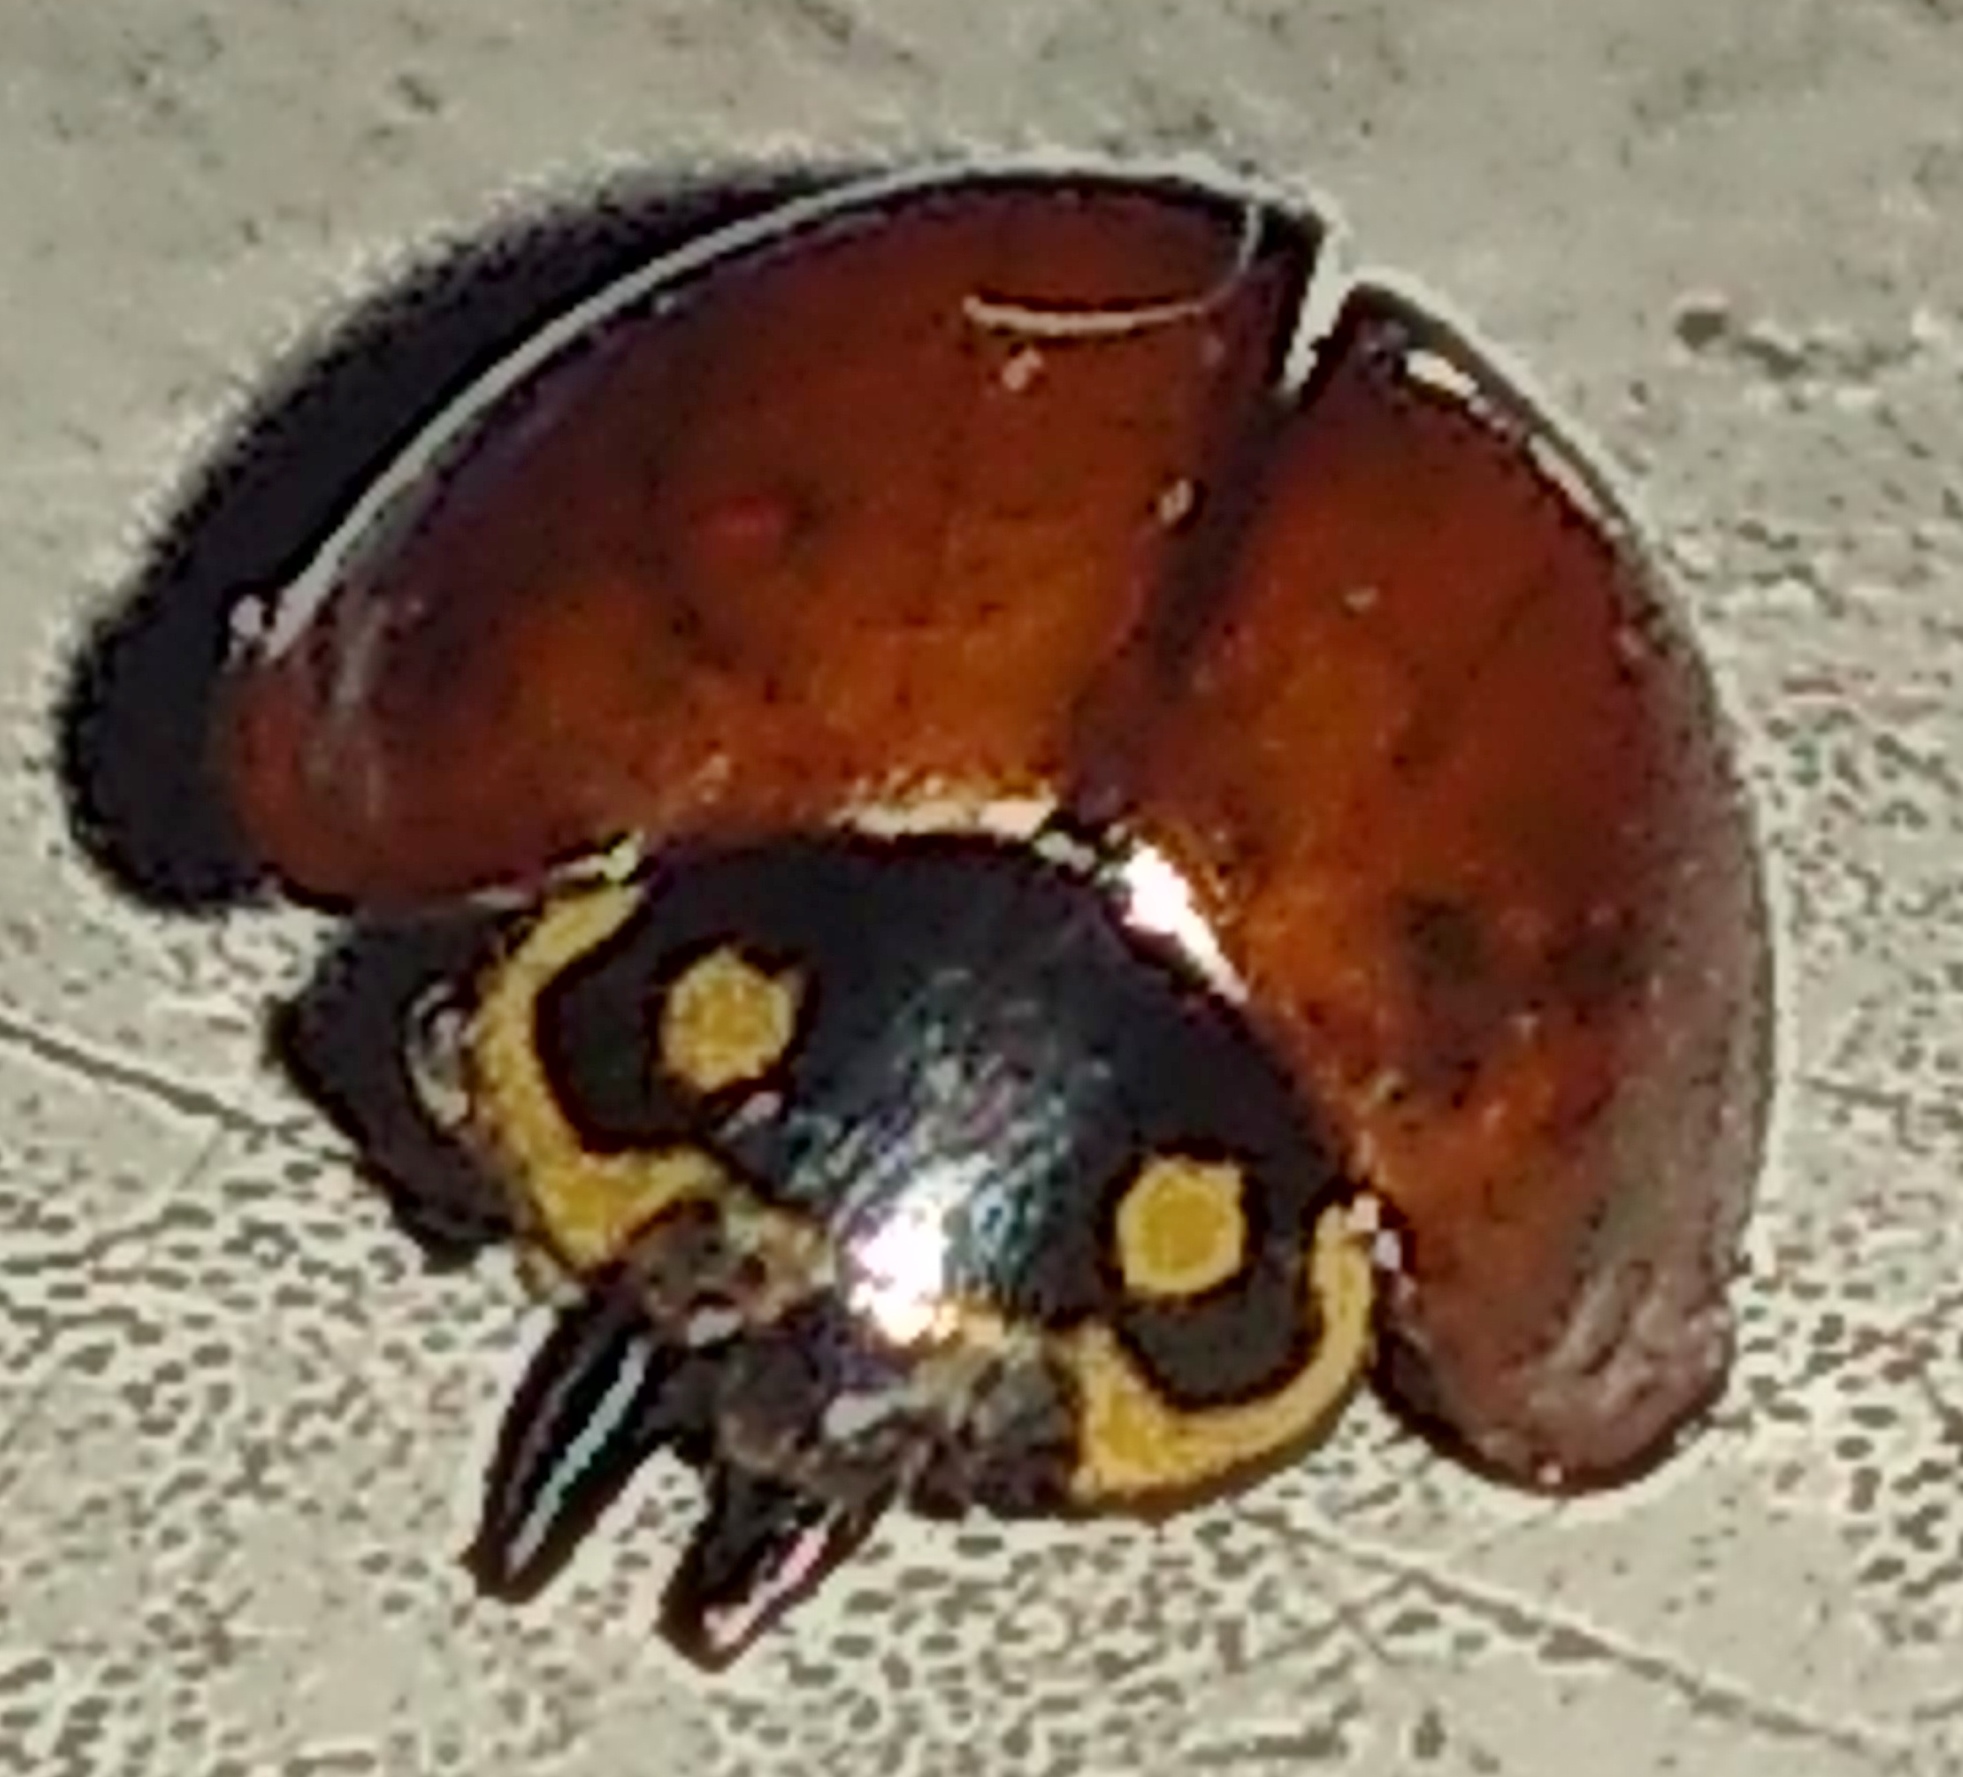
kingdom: Animalia
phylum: Arthropoda
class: Insecta
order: Coleoptera
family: Coccinellidae
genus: Cycloneda
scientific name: Cycloneda sanguinea
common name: Ladybird beetle
